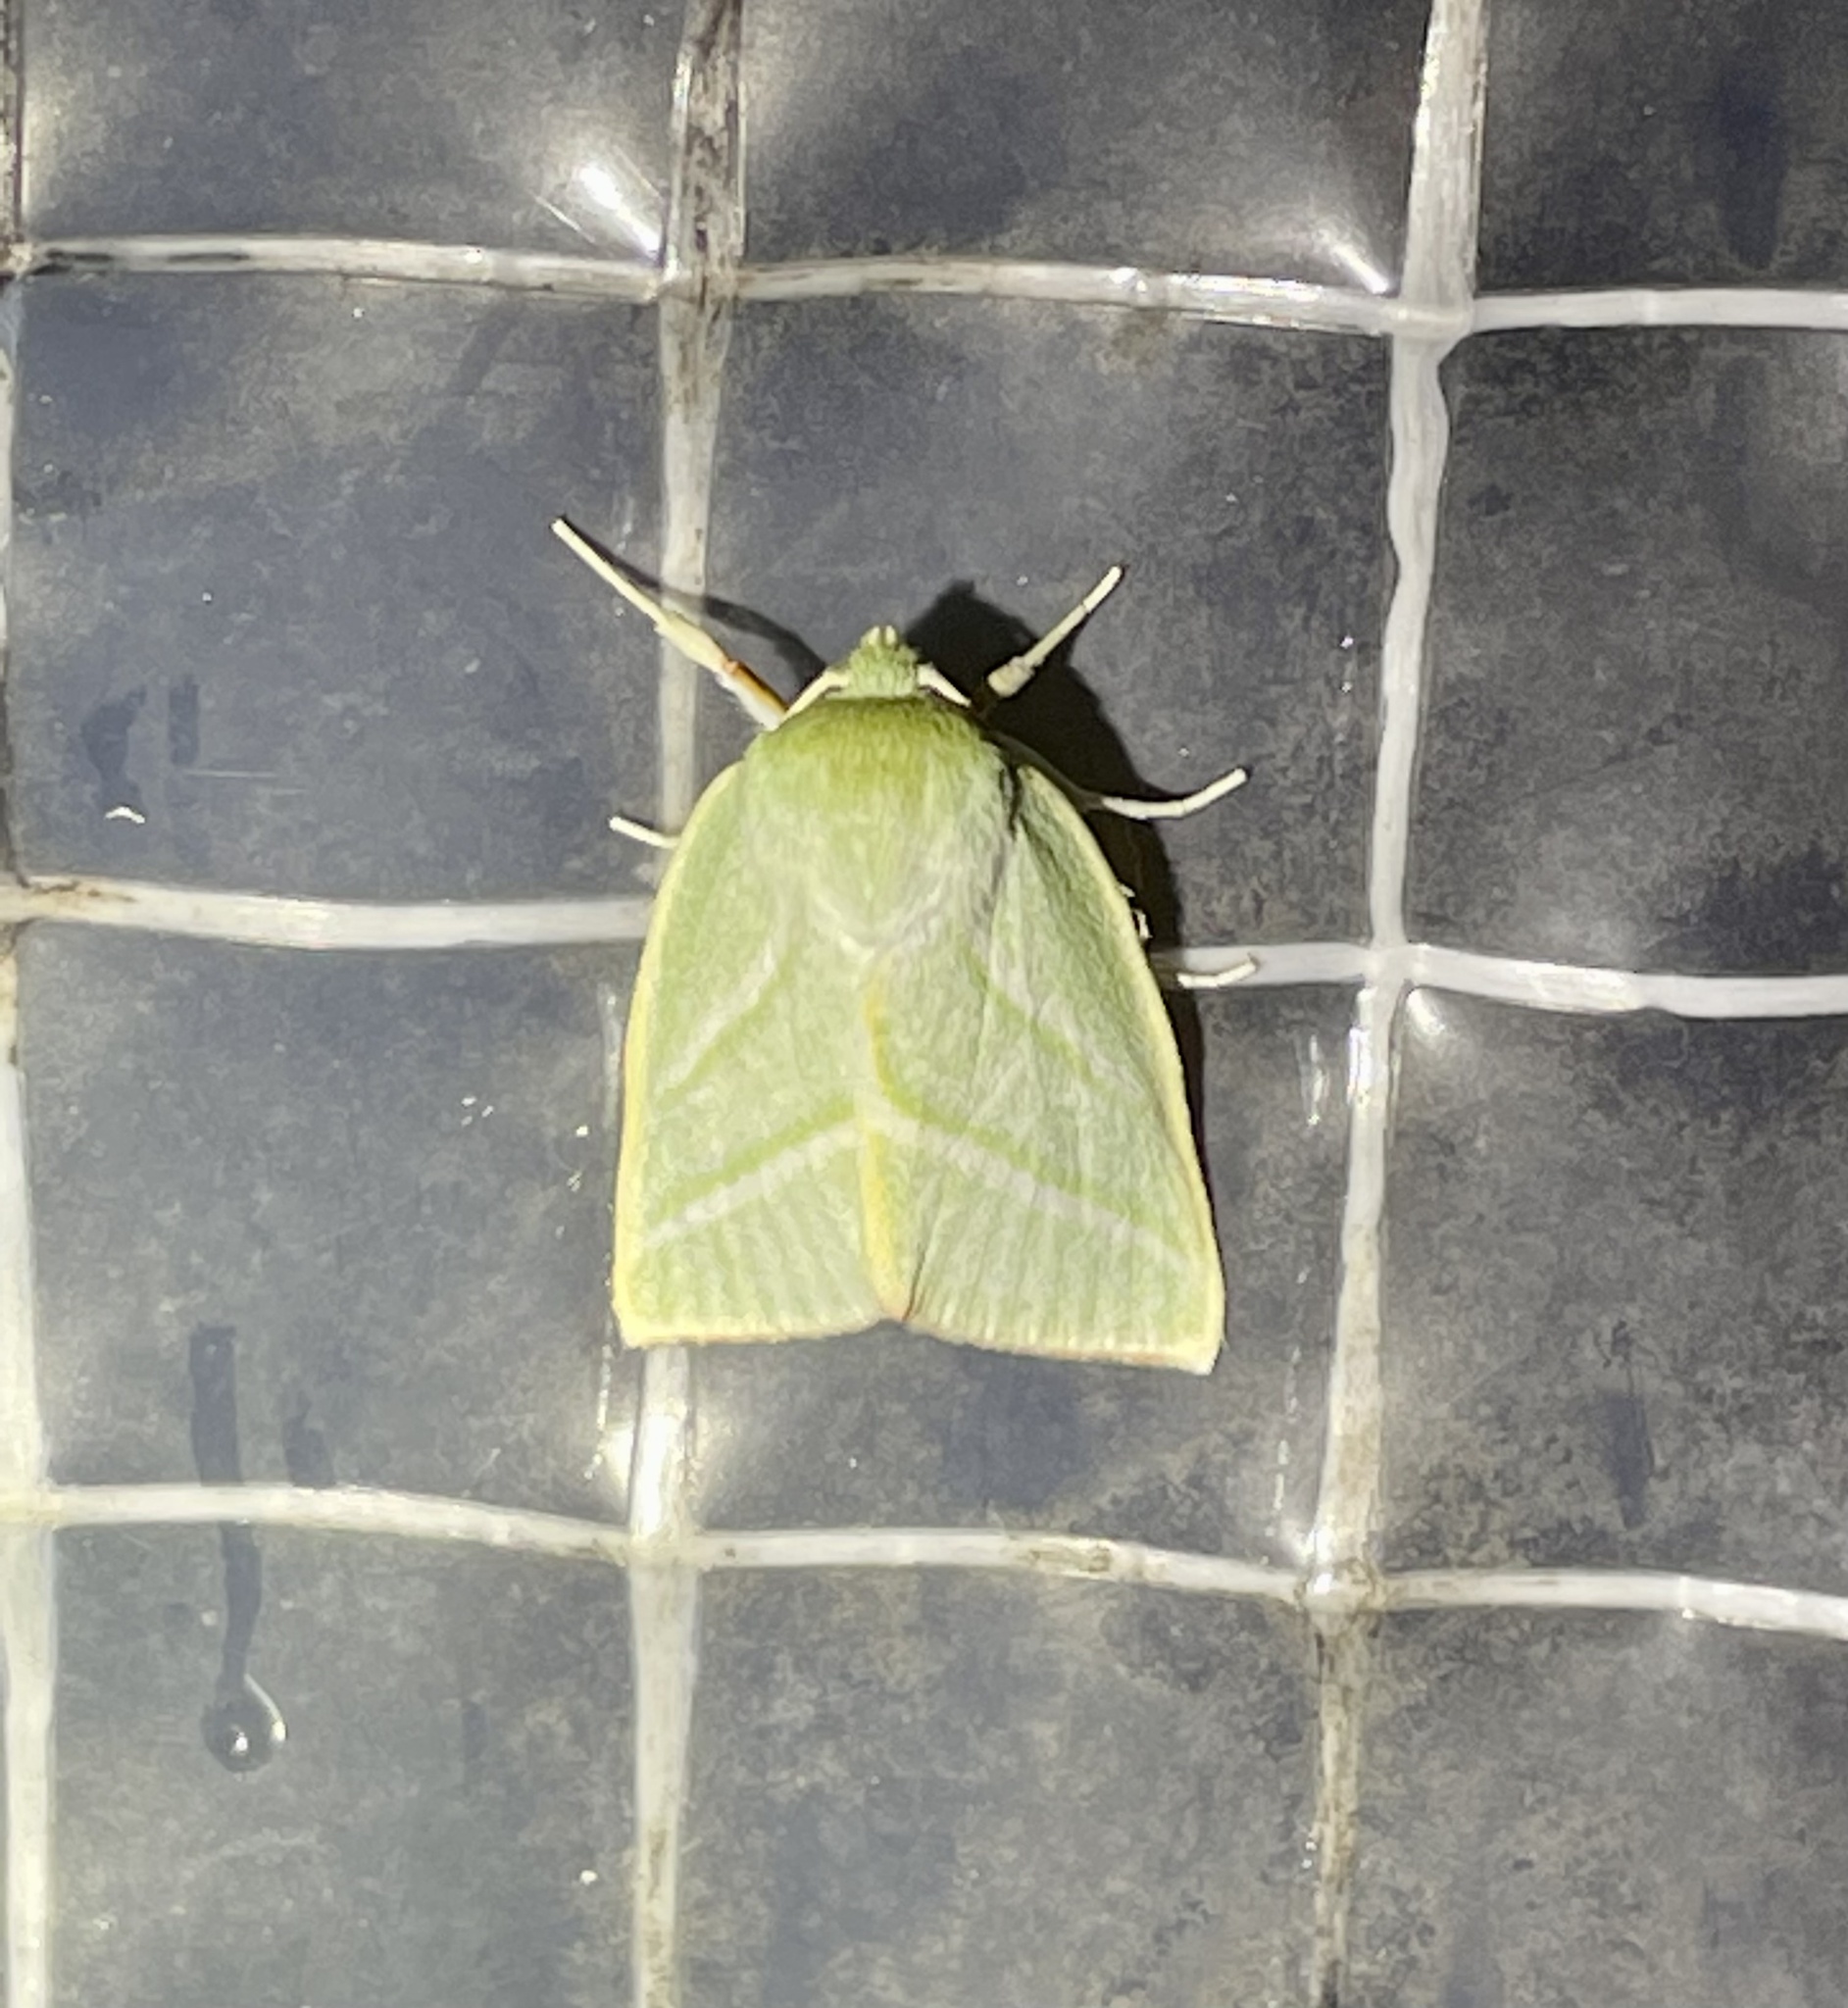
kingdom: Animalia
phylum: Arthropoda
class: Insecta
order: Lepidoptera
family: Nolidae
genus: Pseudoips
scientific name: Pseudoips sylpha
